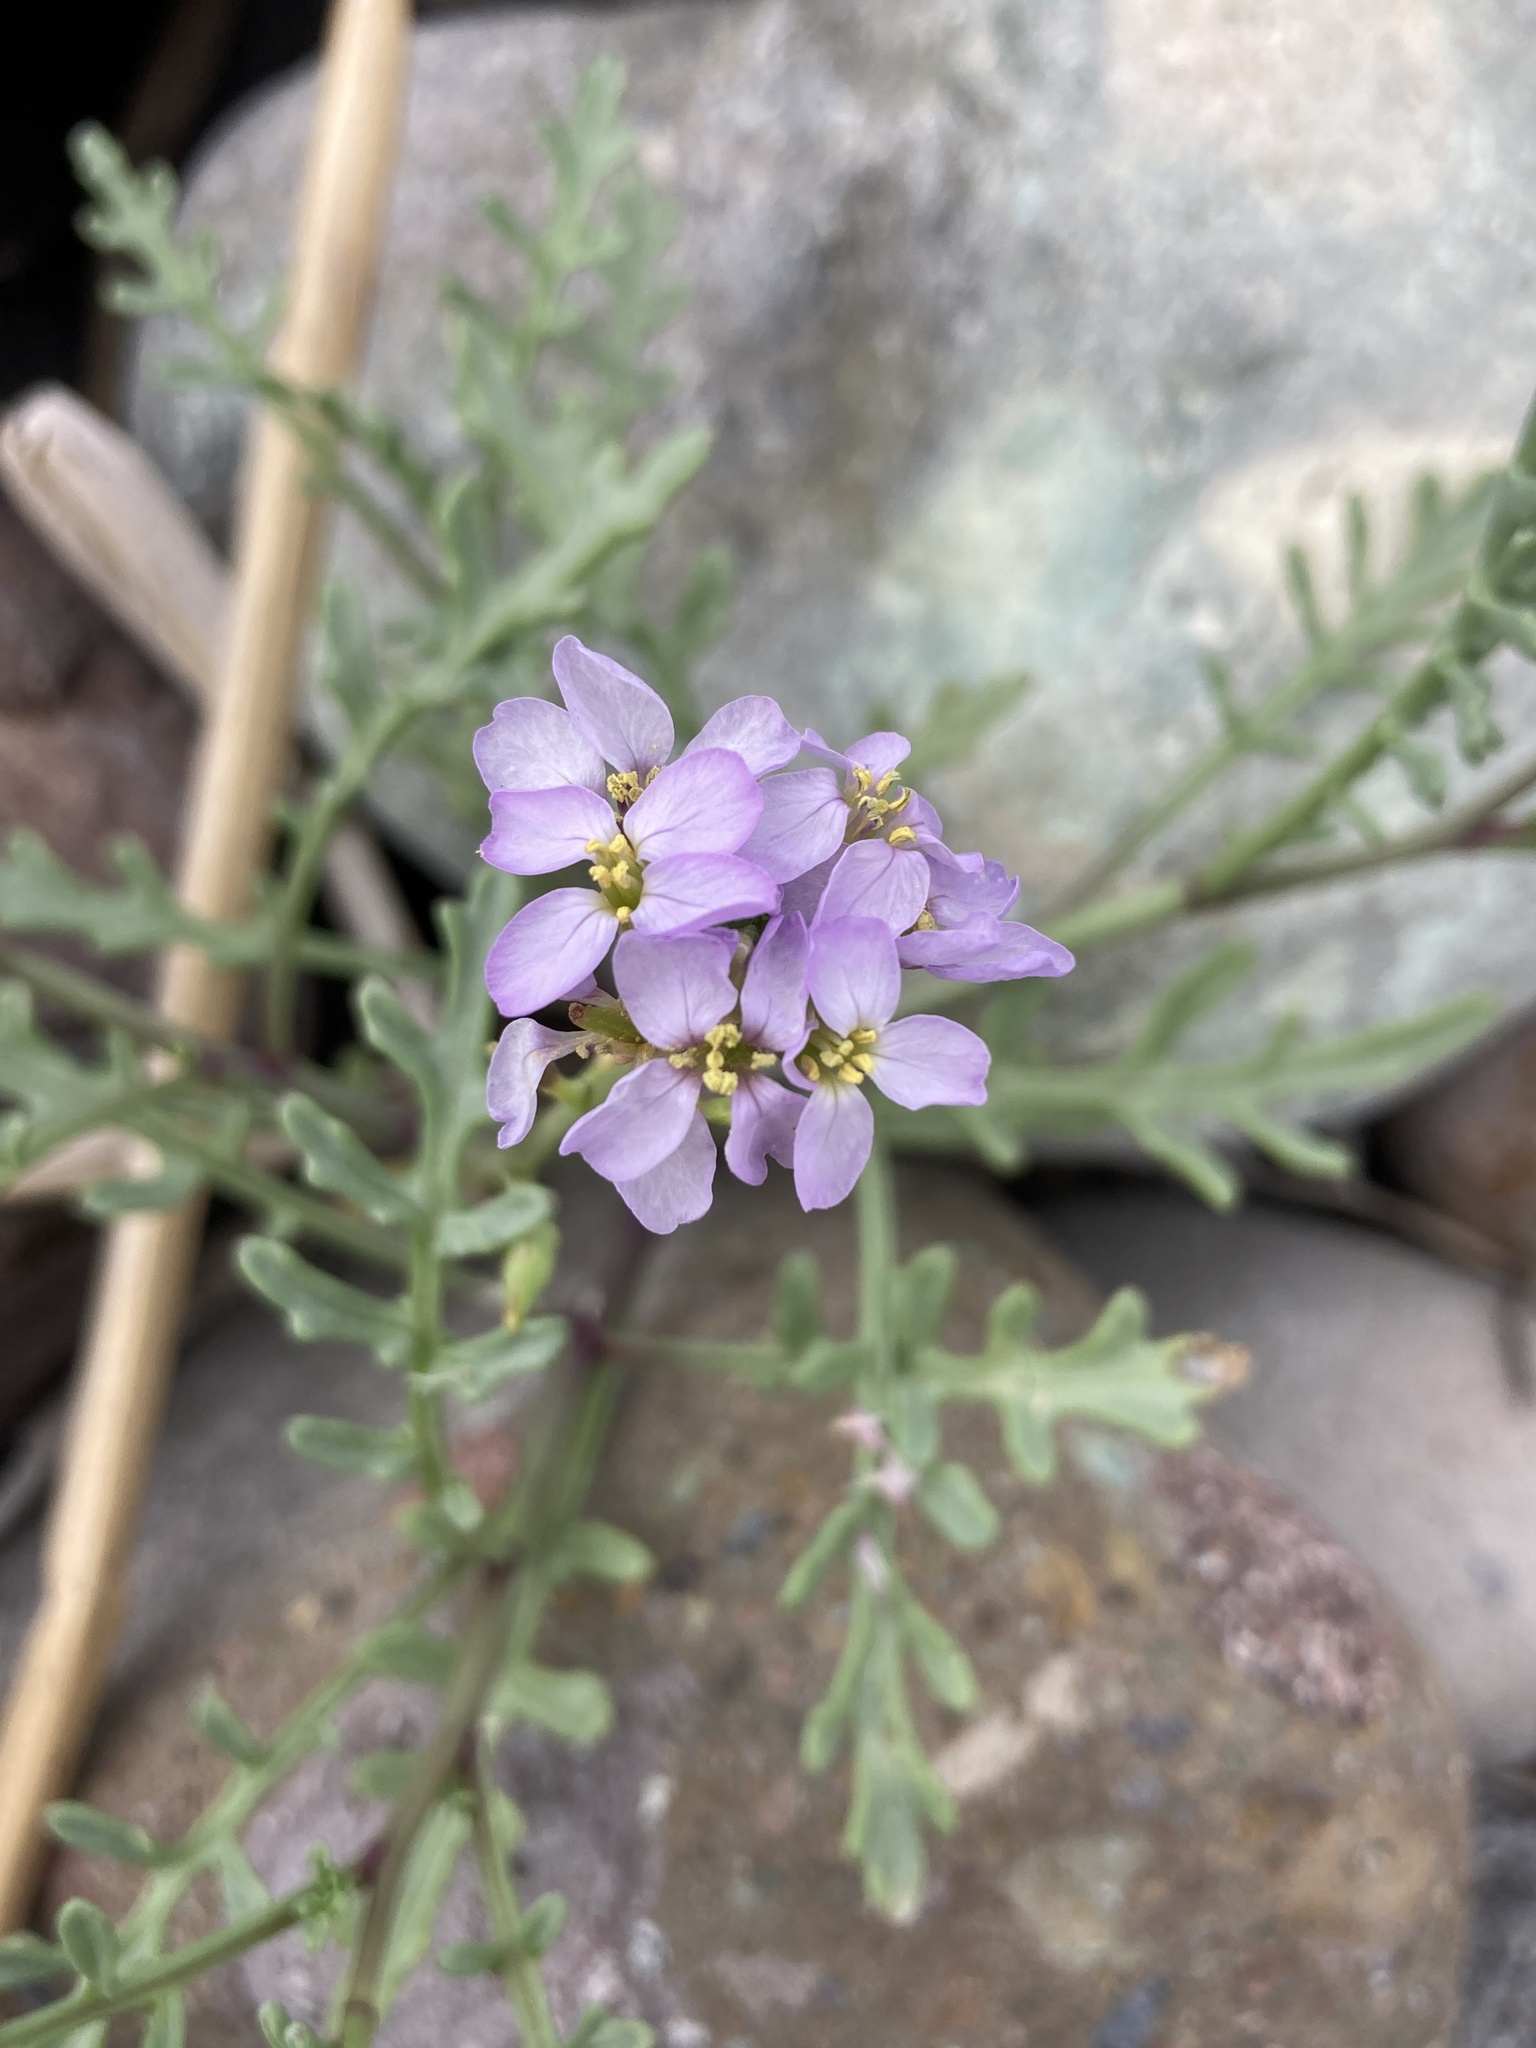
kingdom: Plantae
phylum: Tracheophyta
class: Magnoliopsida
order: Brassicales
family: Brassicaceae
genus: Cakile
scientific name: Cakile maritima
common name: Sea rocket
